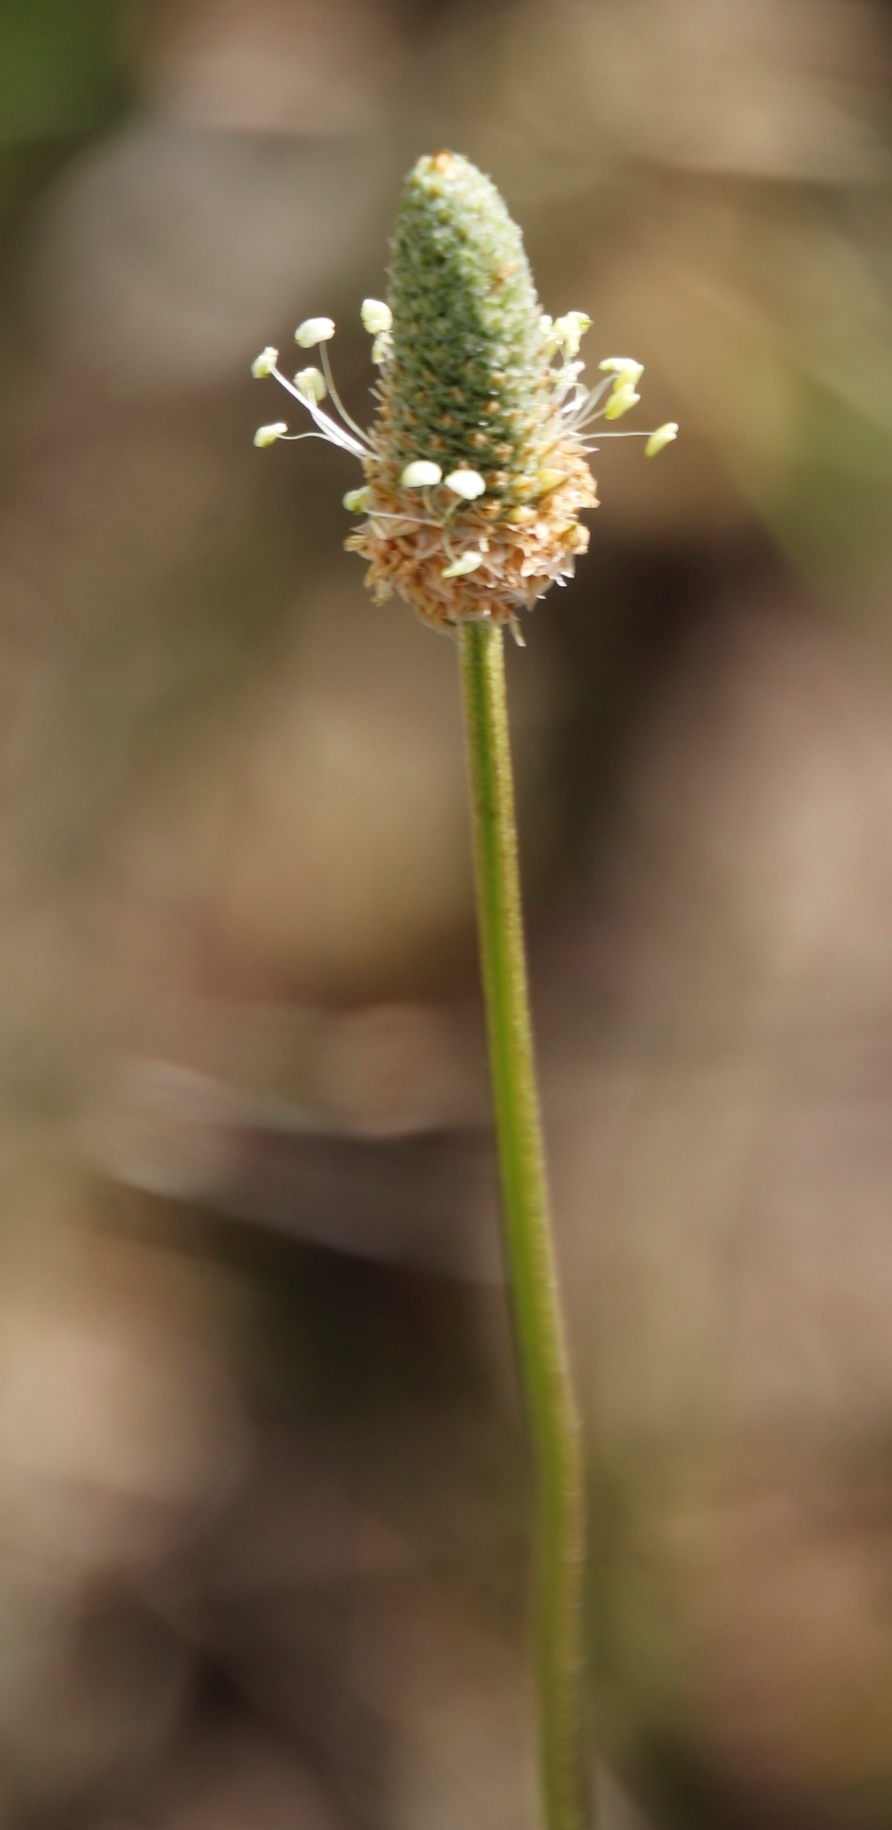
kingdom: Plantae
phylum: Tracheophyta
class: Magnoliopsida
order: Lamiales
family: Plantaginaceae
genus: Plantago
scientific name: Plantago lanceolata
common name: Ribwort plantain
